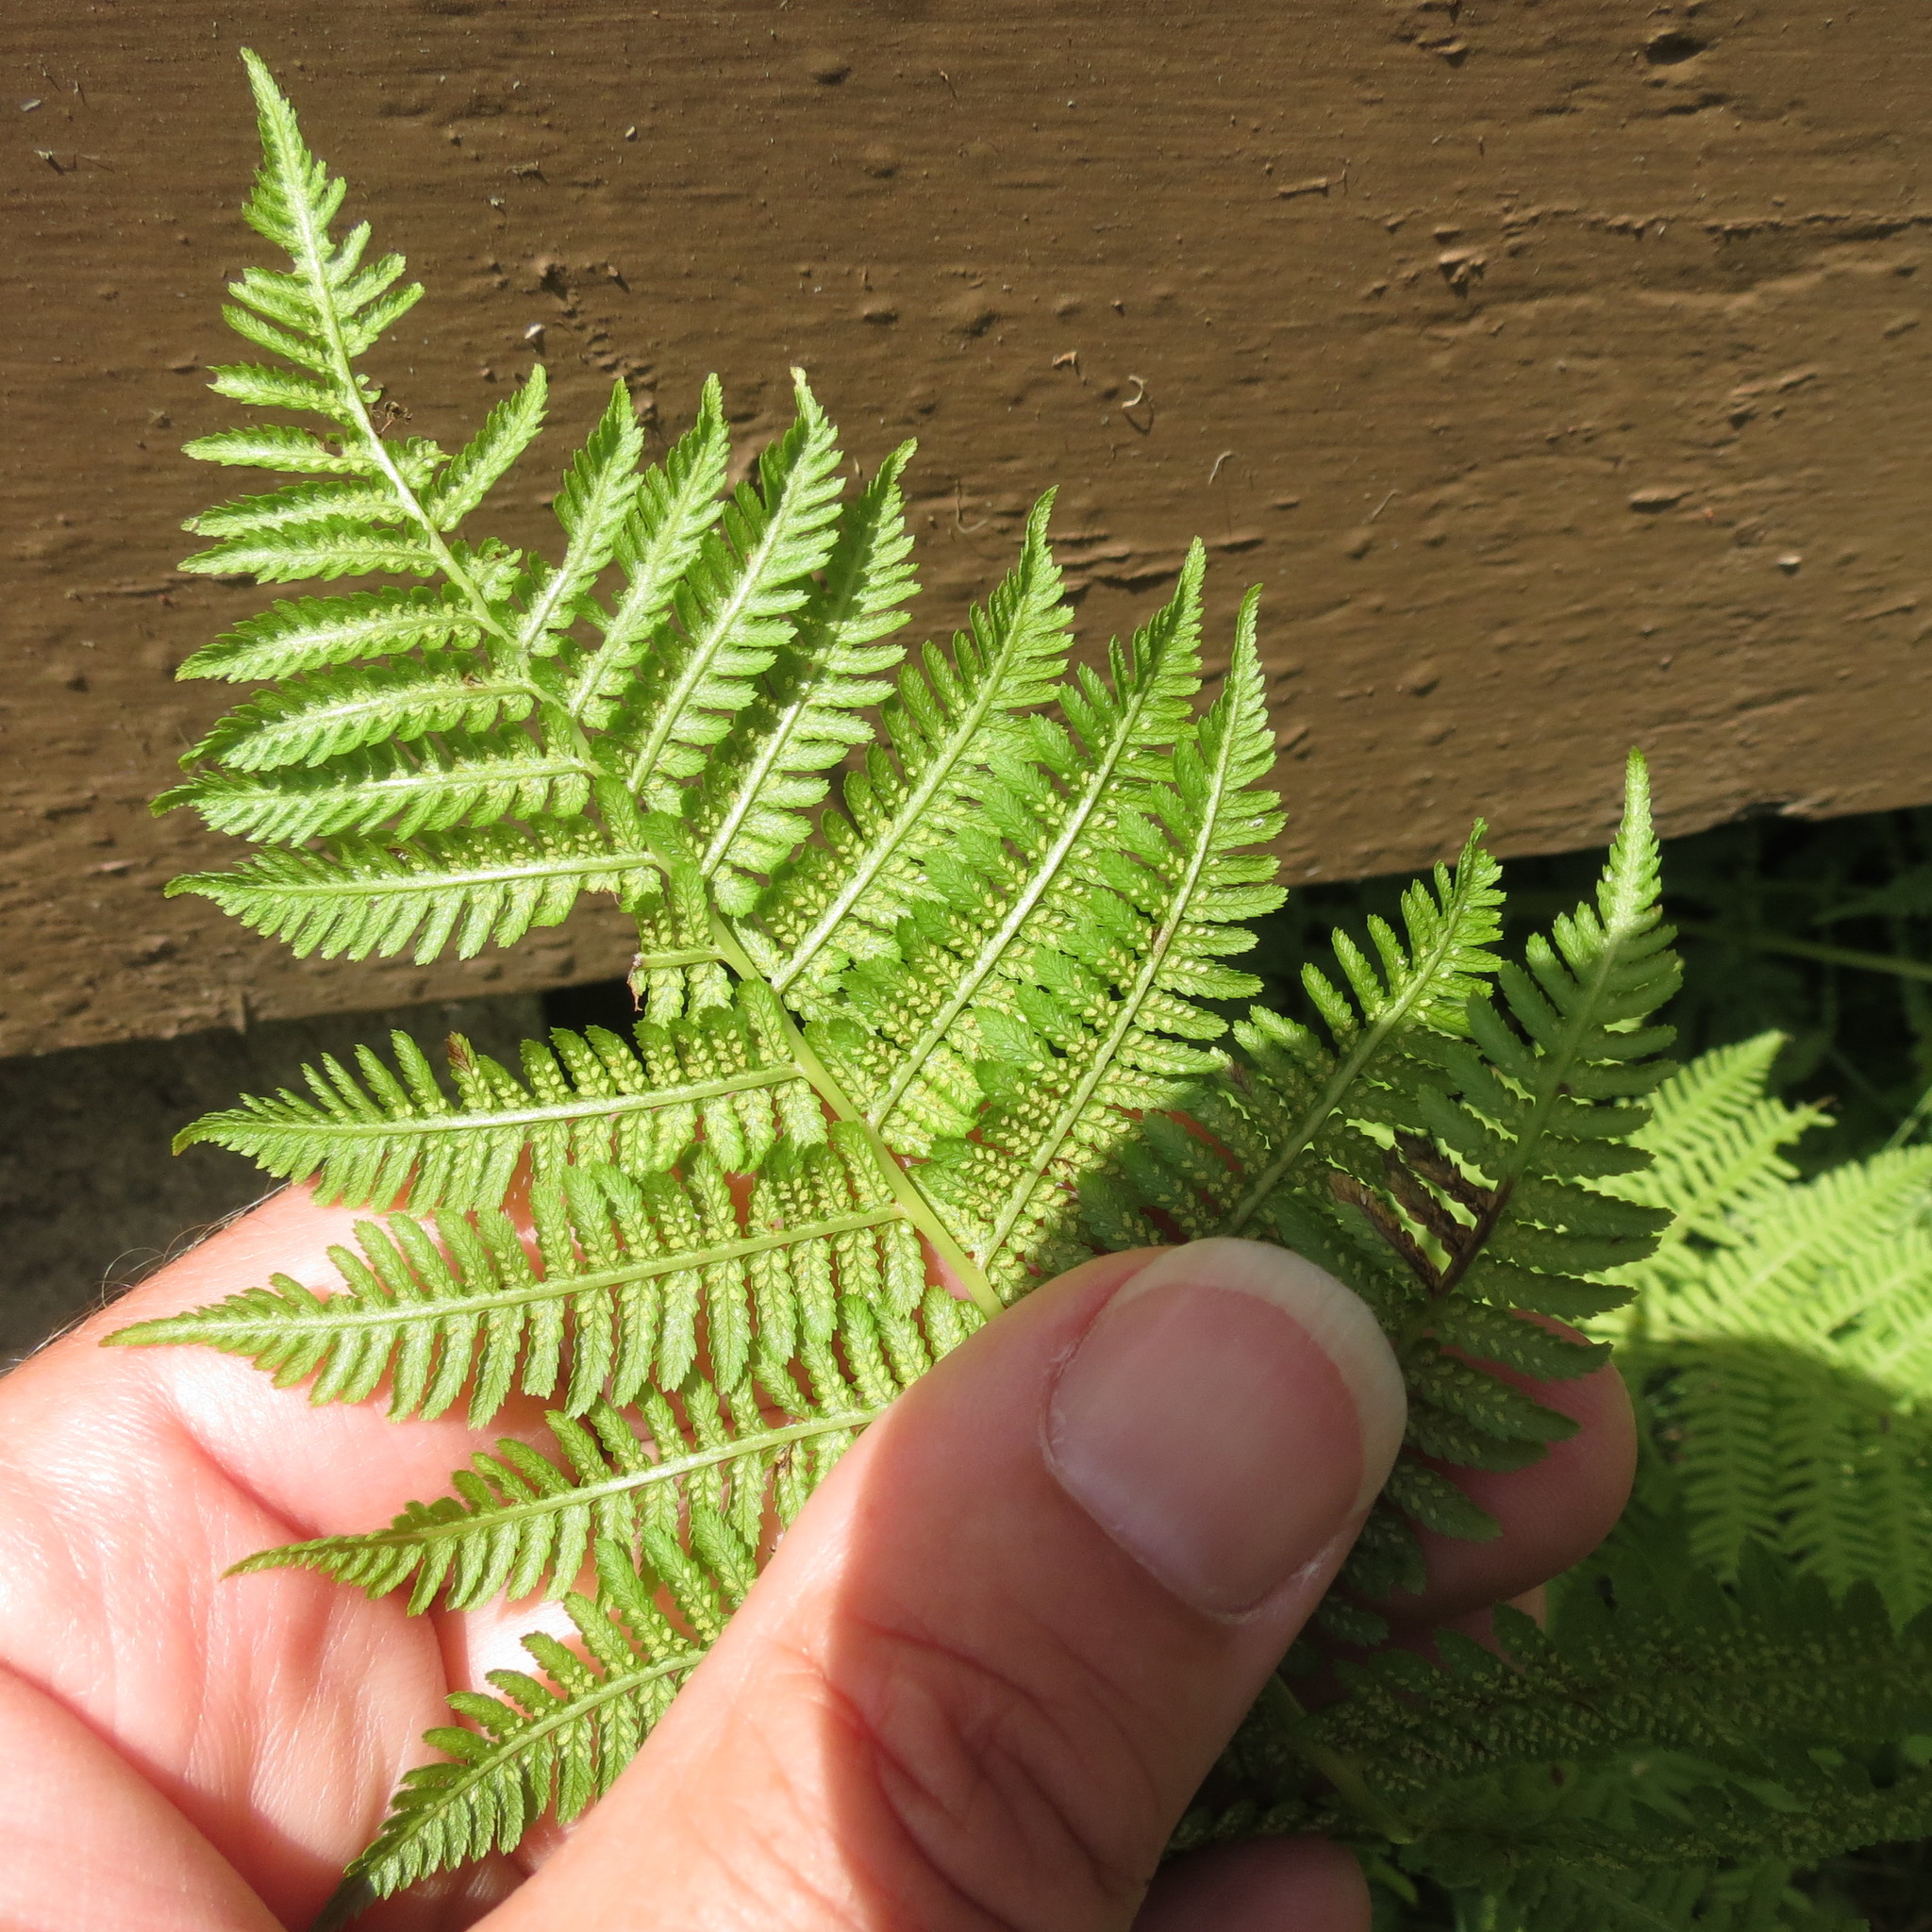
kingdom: Plantae
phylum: Tracheophyta
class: Polypodiopsida
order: Polypodiales
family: Athyriaceae
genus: Athyrium
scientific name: Athyrium angustum
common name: Northern lady fern
